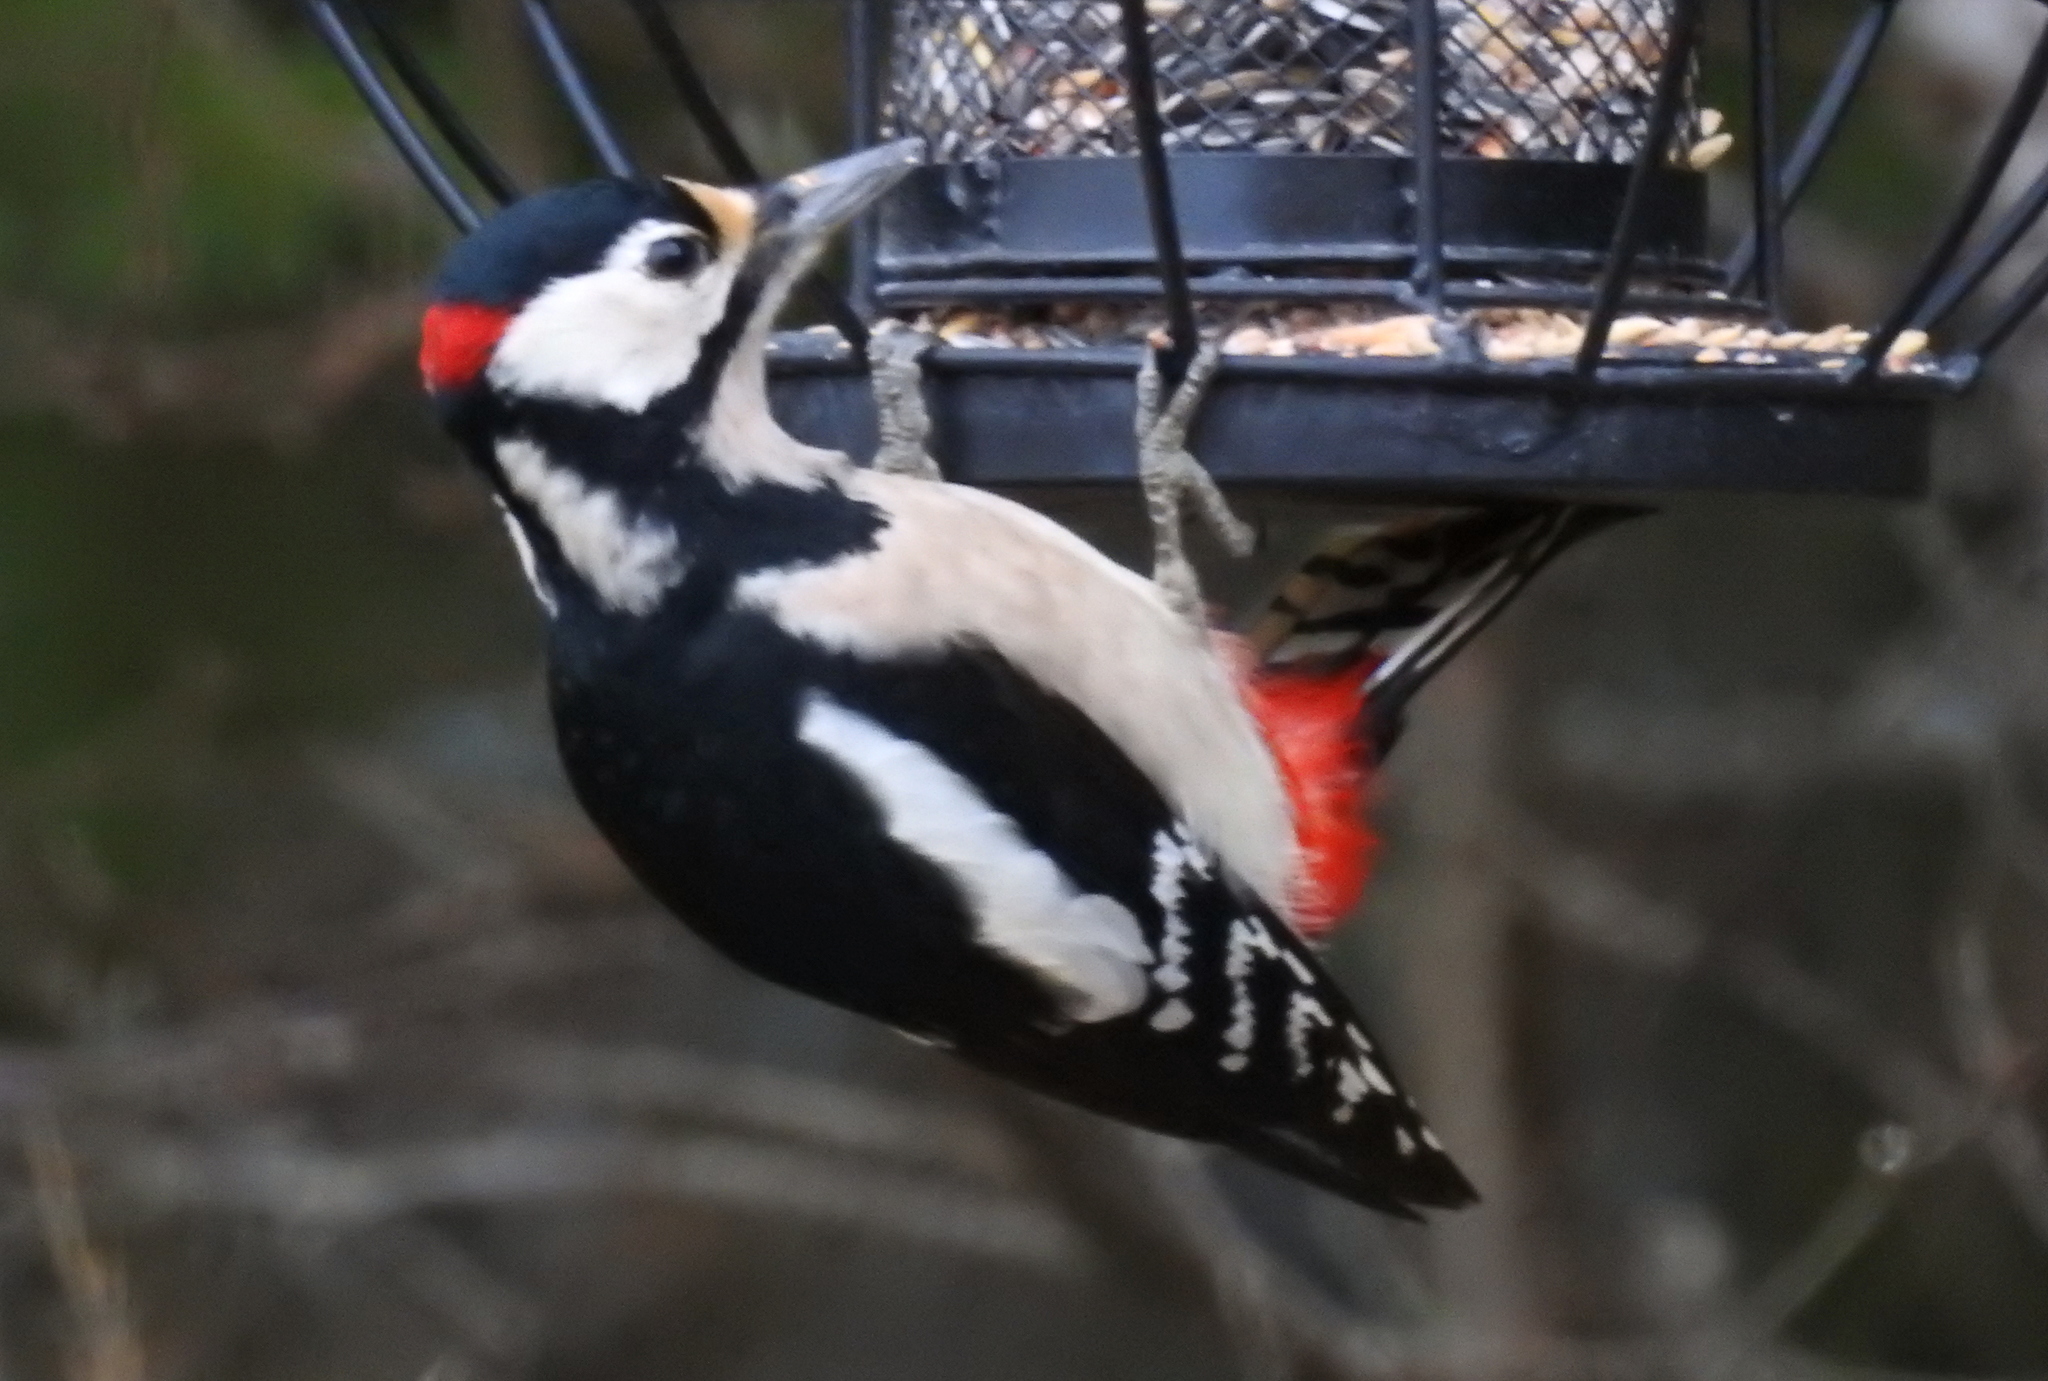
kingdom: Animalia
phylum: Chordata
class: Aves
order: Piciformes
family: Picidae
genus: Dendrocopos
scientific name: Dendrocopos major
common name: Great spotted woodpecker
